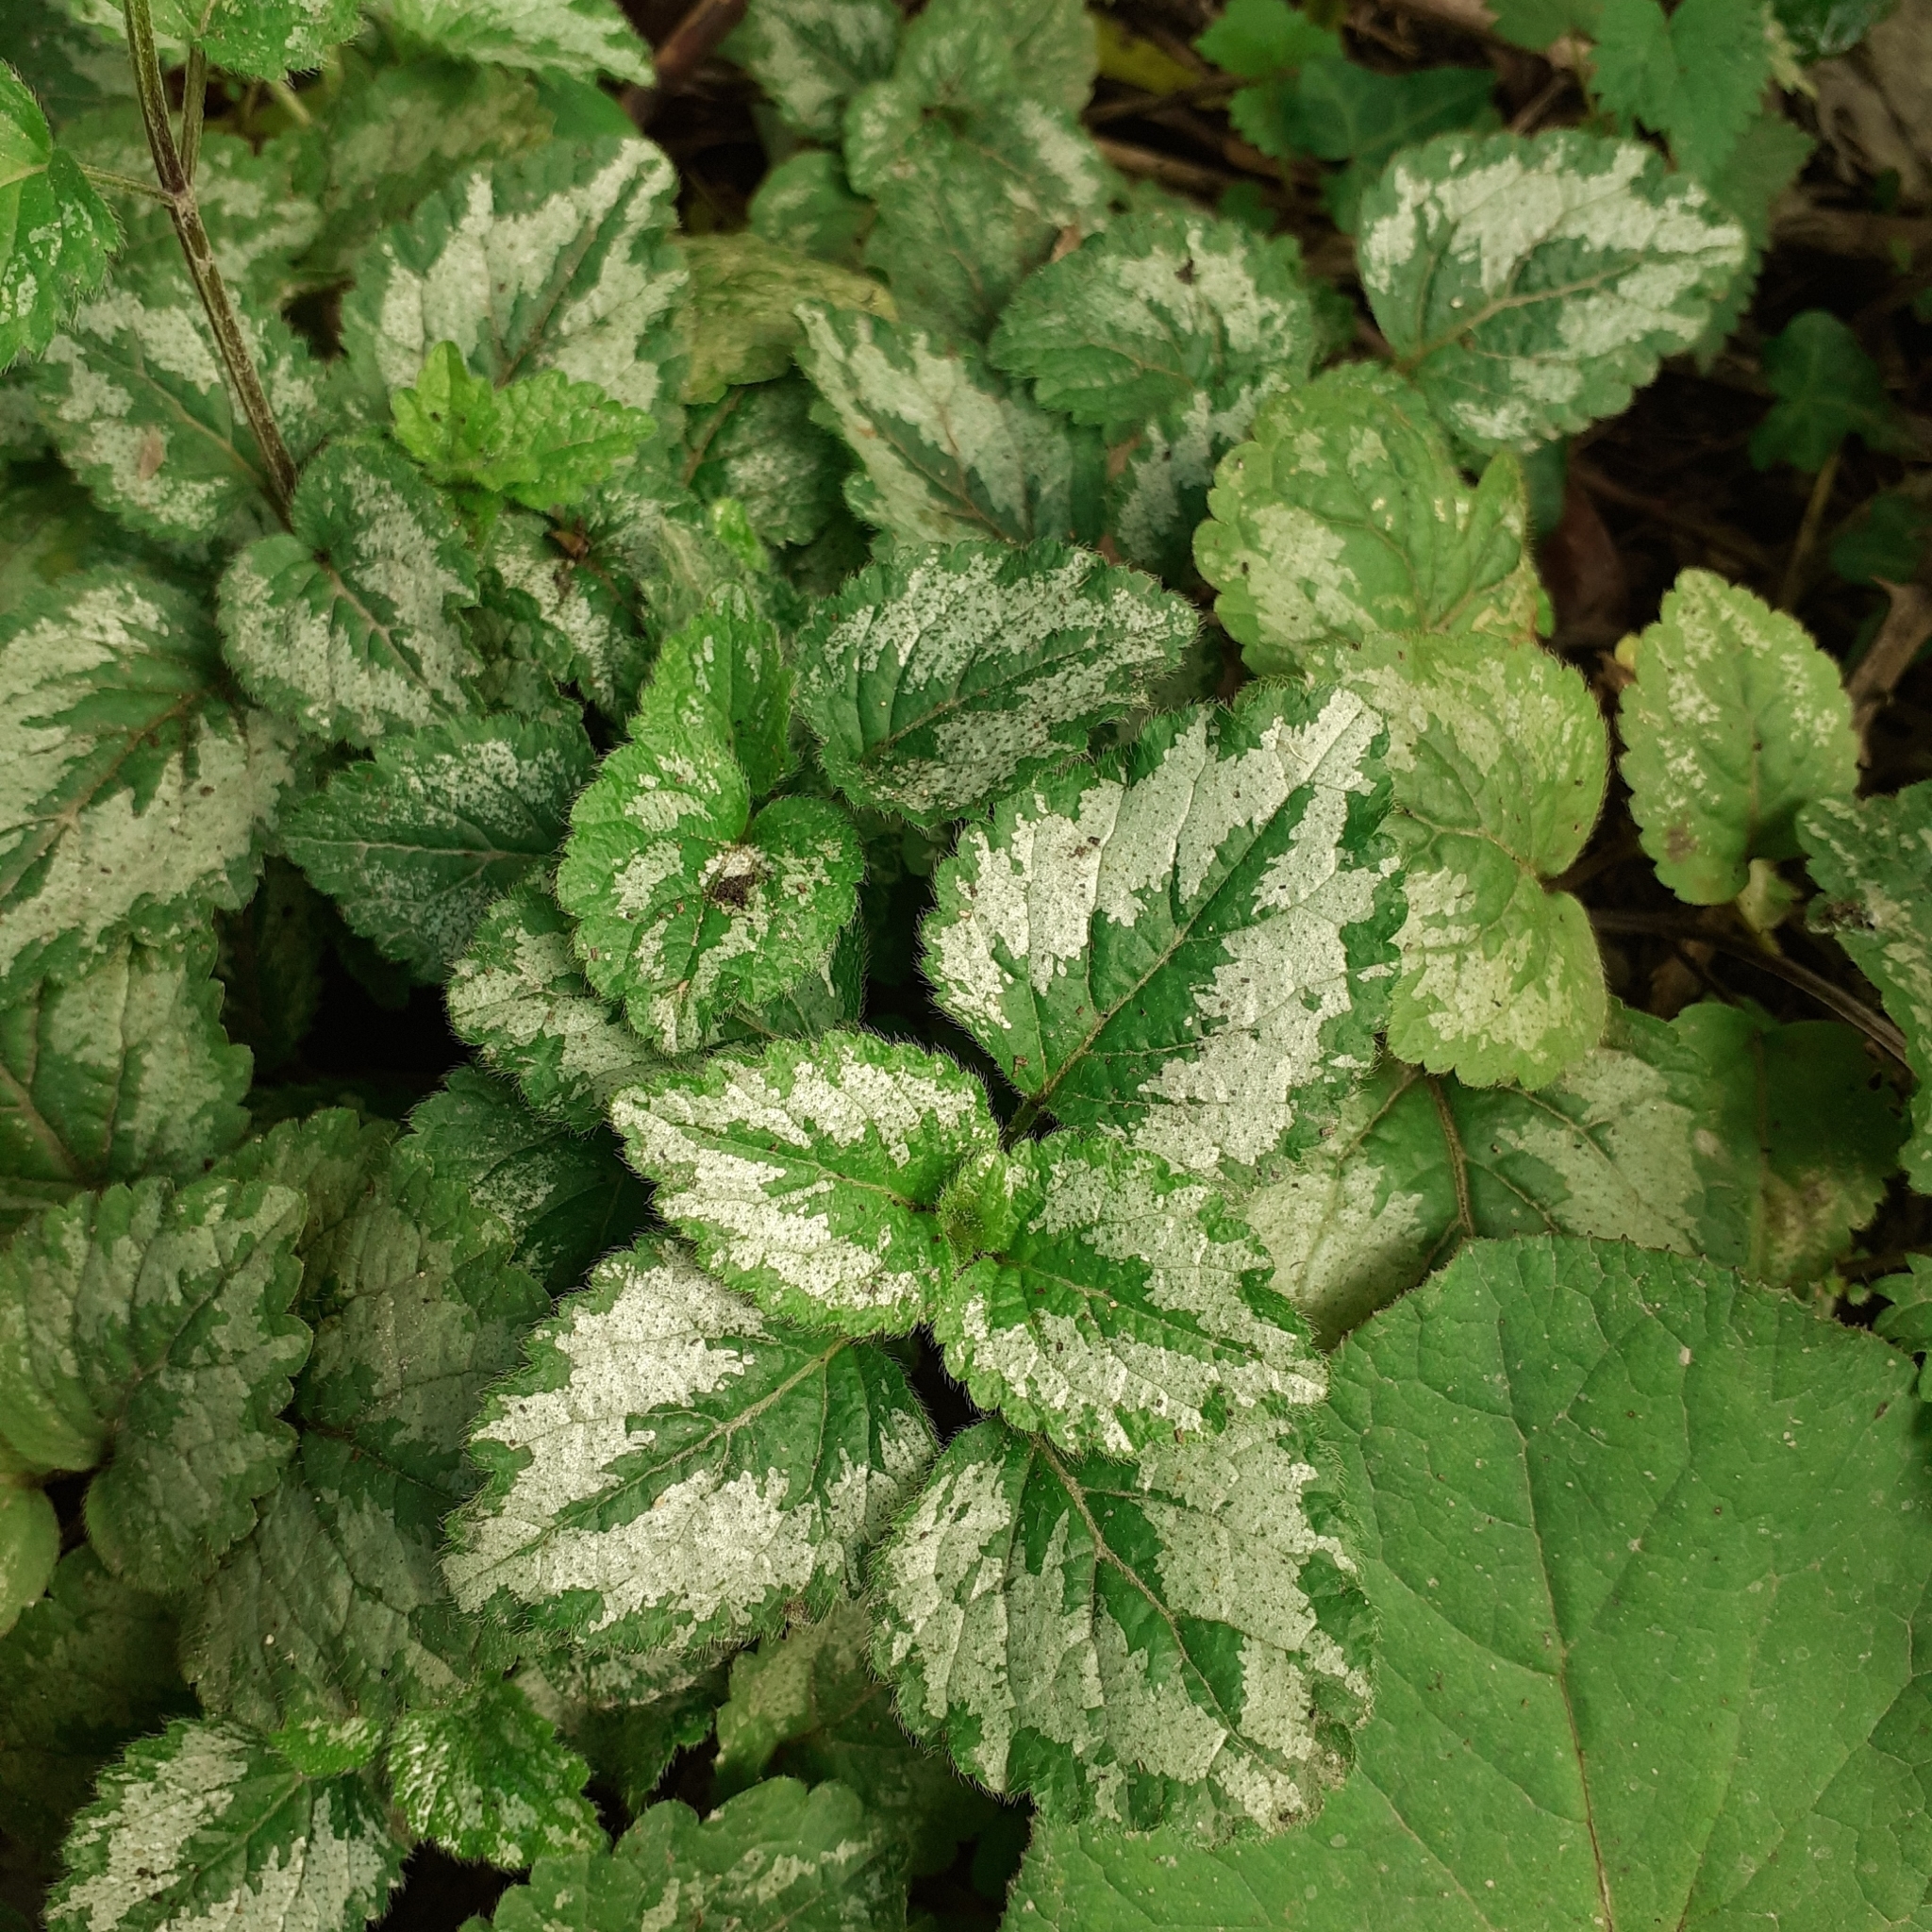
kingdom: Plantae
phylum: Tracheophyta
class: Magnoliopsida
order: Lamiales
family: Lamiaceae
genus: Lamium
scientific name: Lamium galeobdolon
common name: Yellow archangel
